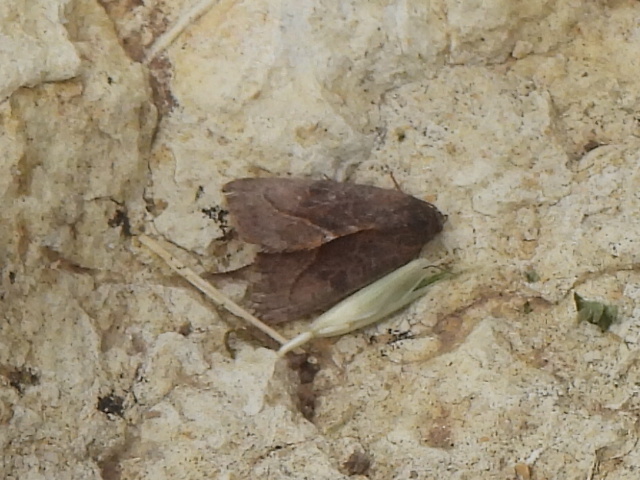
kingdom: Animalia
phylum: Arthropoda
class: Insecta
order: Lepidoptera
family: Noctuidae
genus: Galgula
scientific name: Galgula partita
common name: Wedgeling
